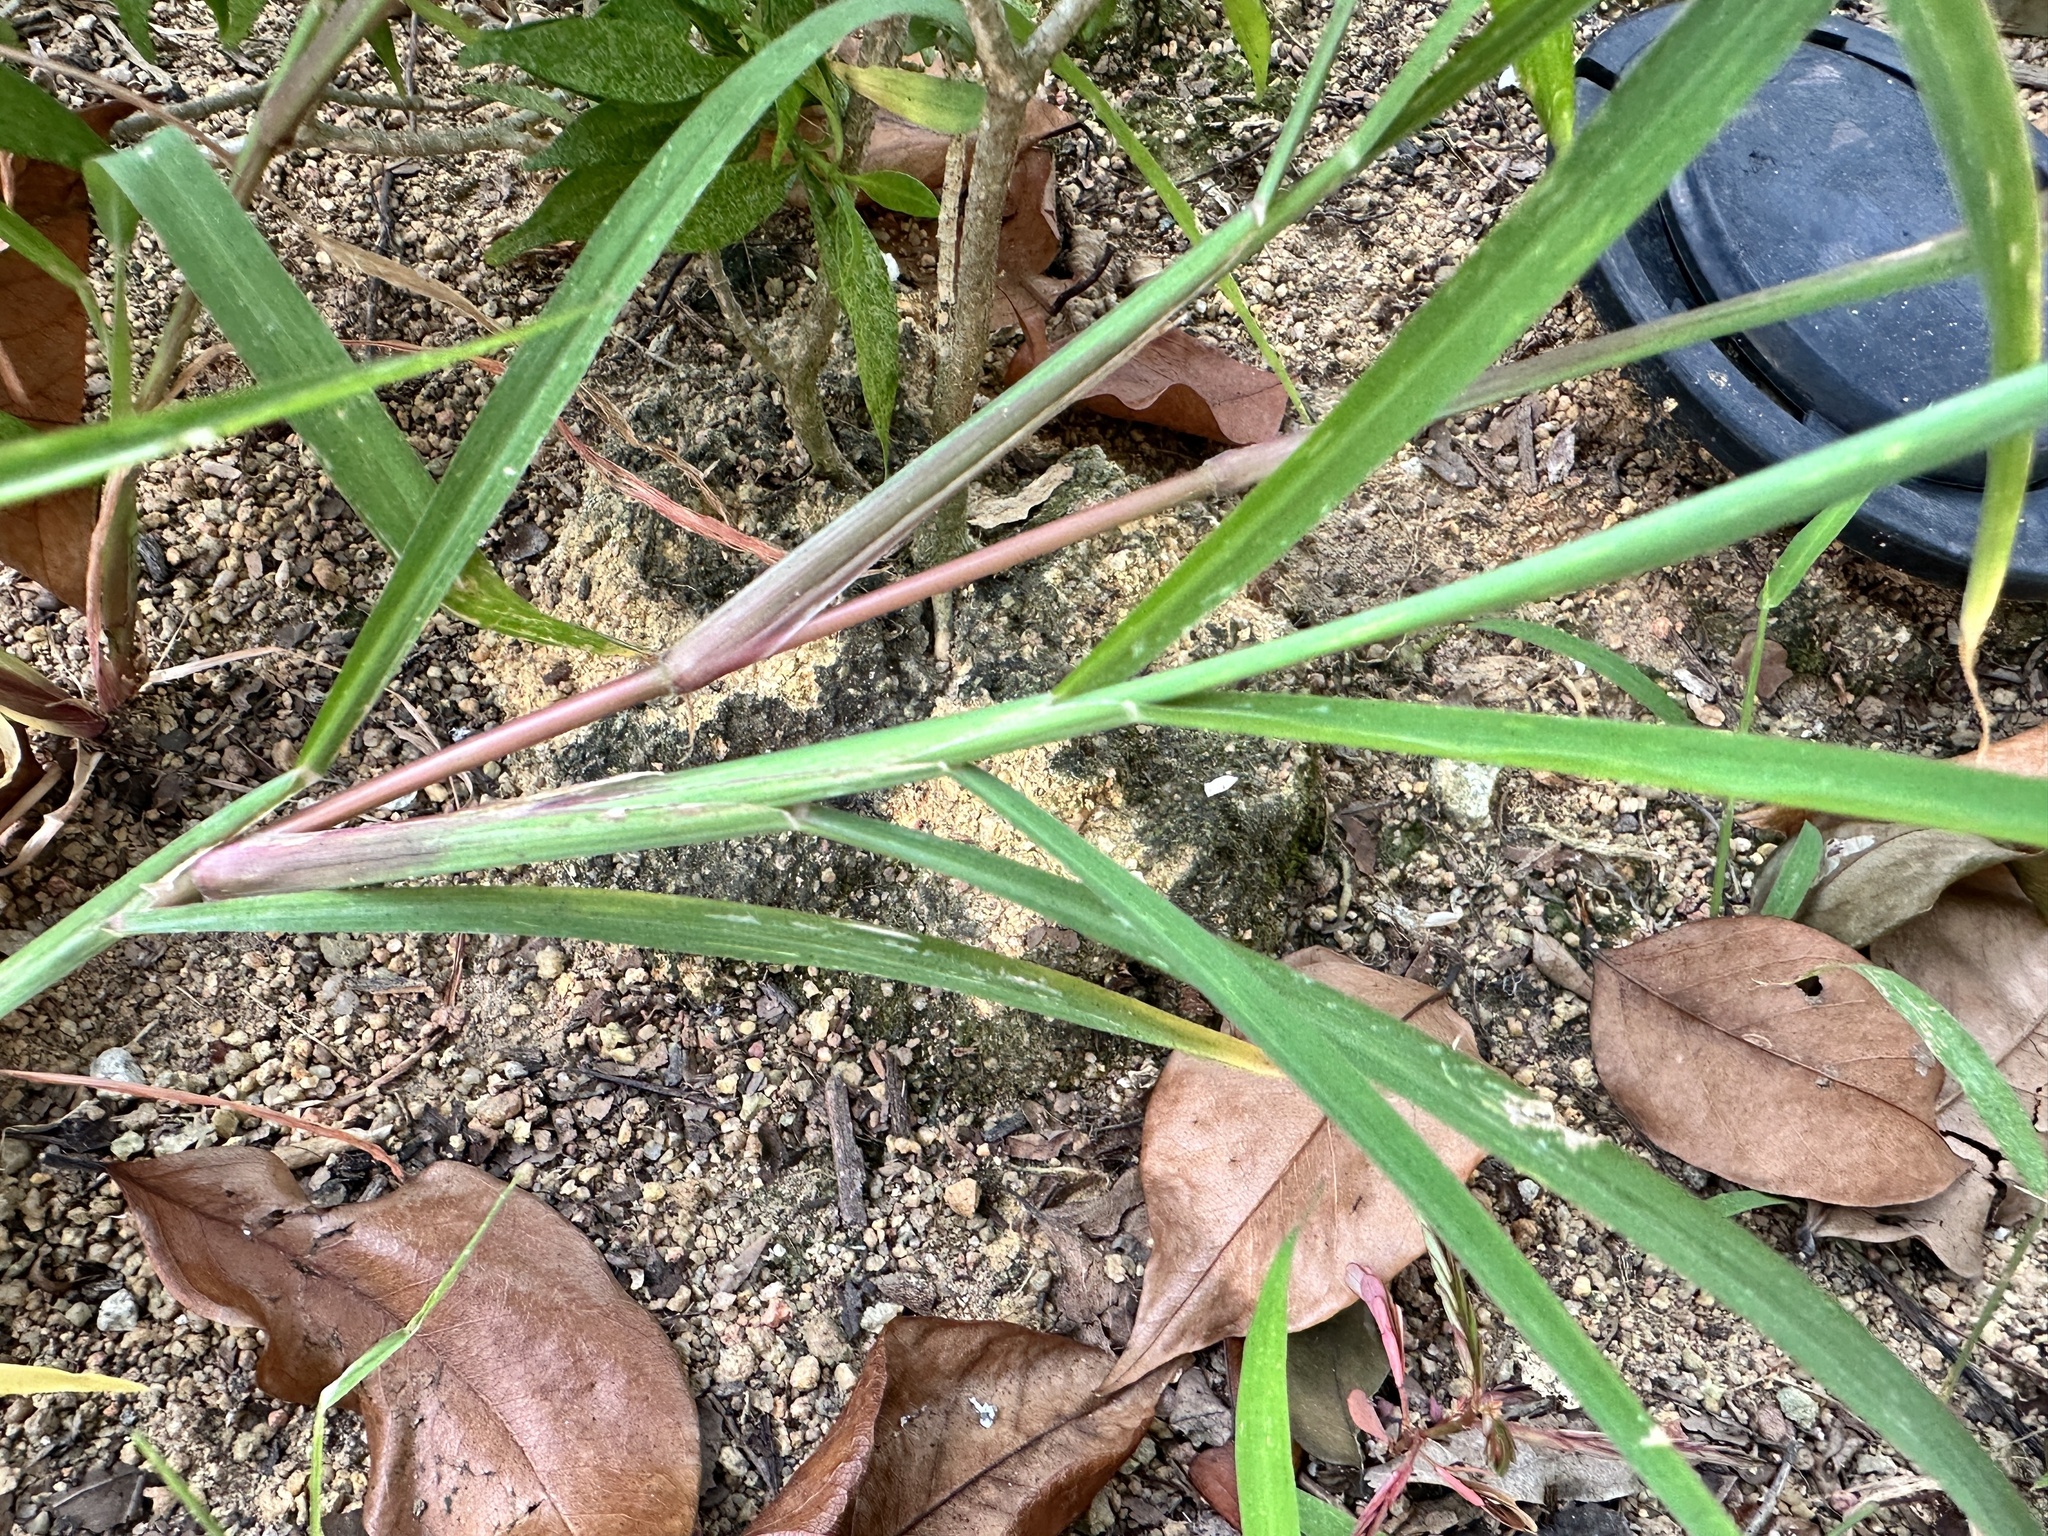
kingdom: Plantae
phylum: Tracheophyta
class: Liliopsida
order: Poales
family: Poaceae
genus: Echinochloa
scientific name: Echinochloa colonum
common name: Jungle rice
